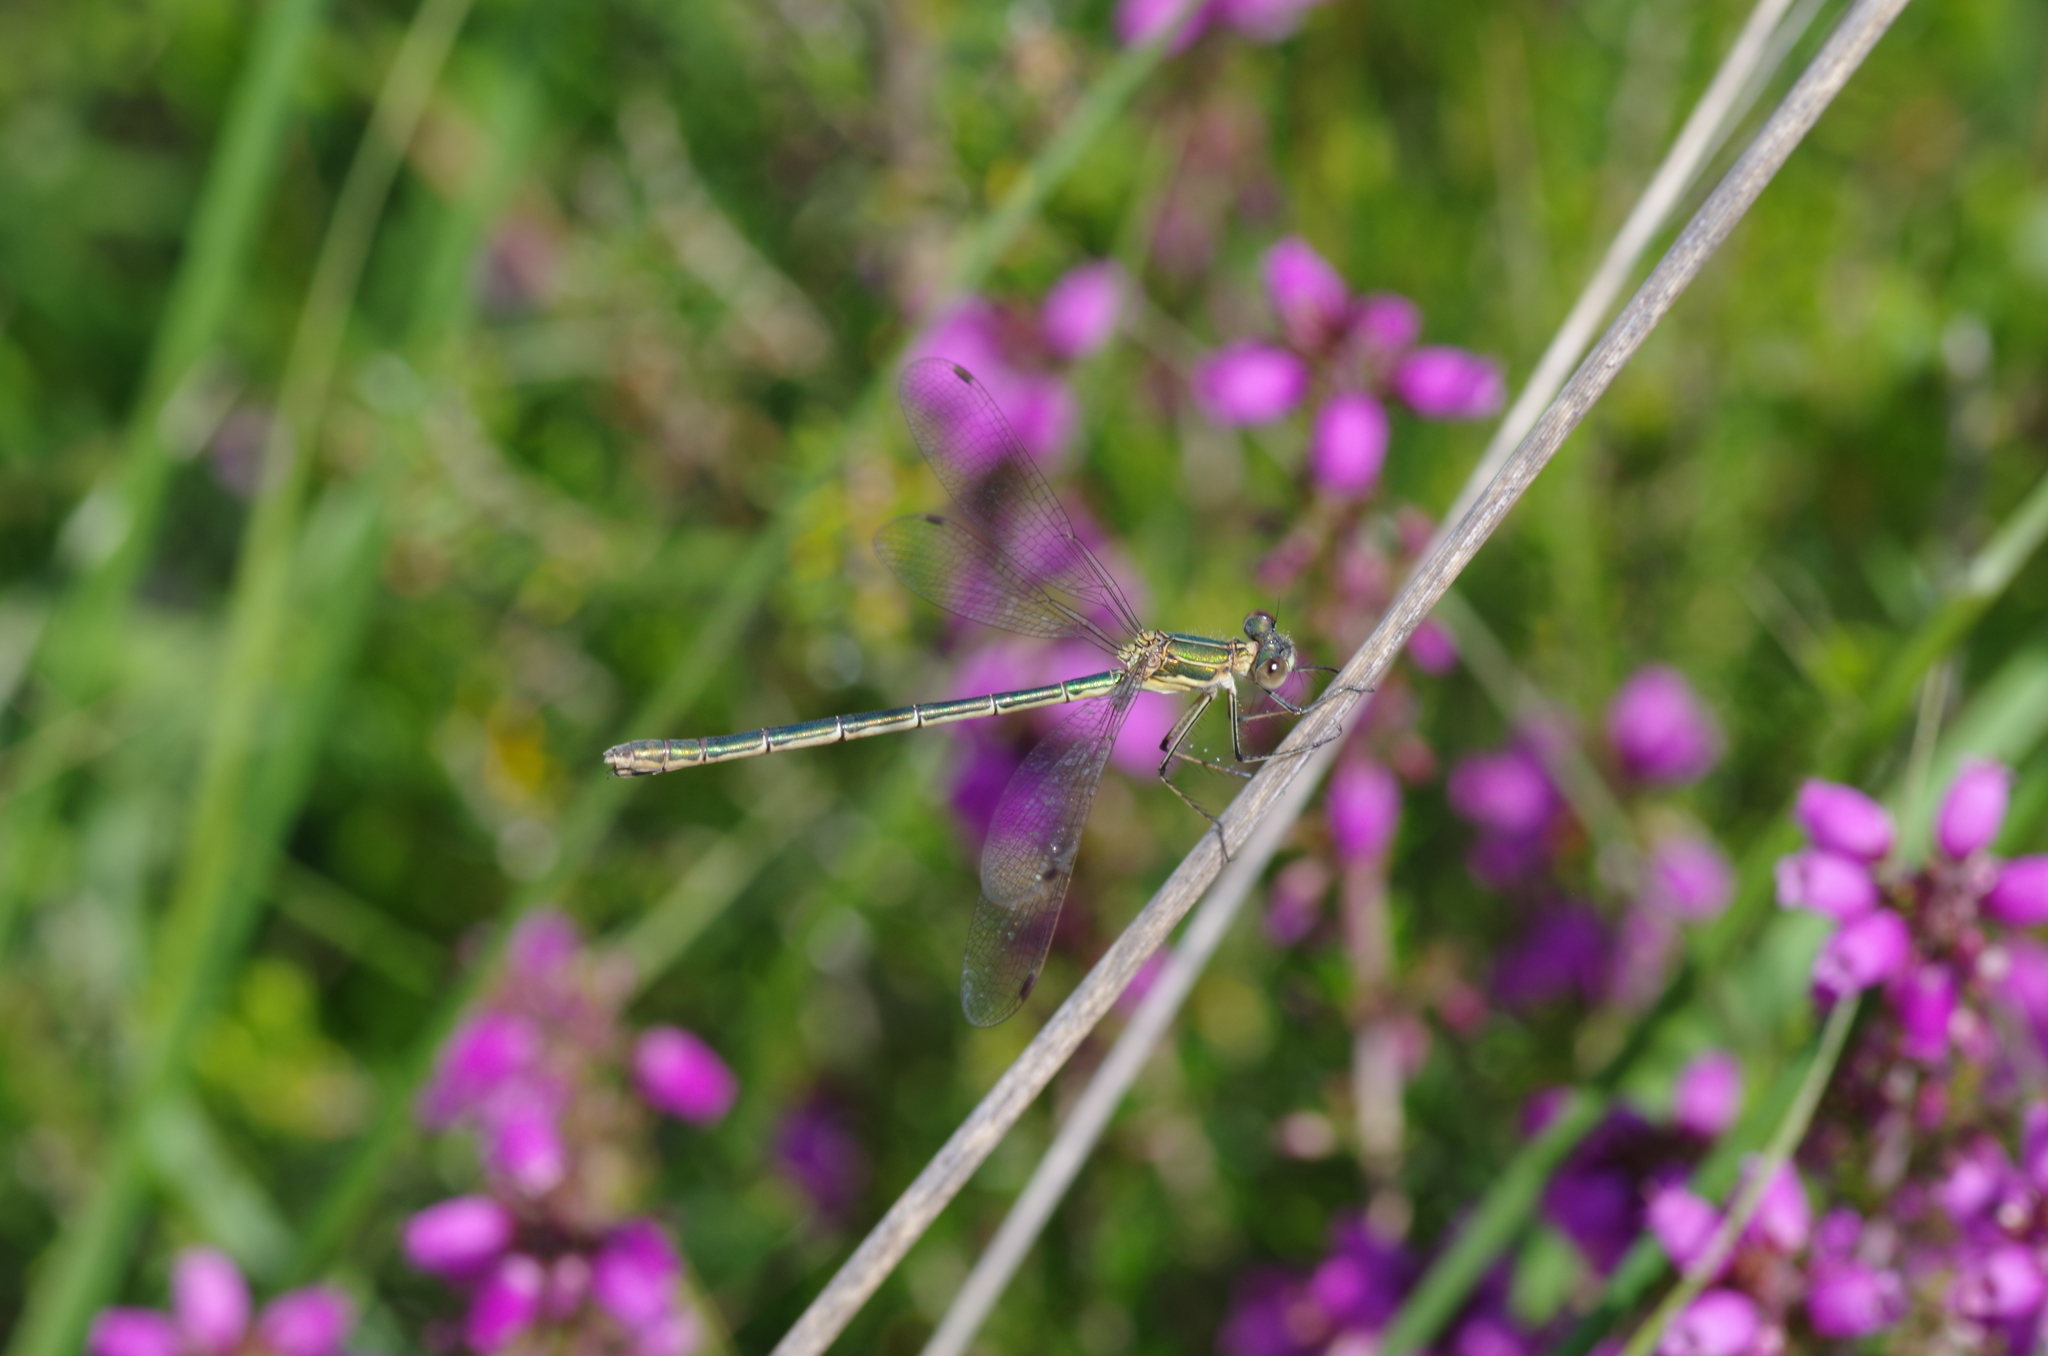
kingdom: Animalia
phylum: Arthropoda
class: Insecta
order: Odonata
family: Lestidae
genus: Lestes
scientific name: Lestes sponsa
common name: Common spreadwing
